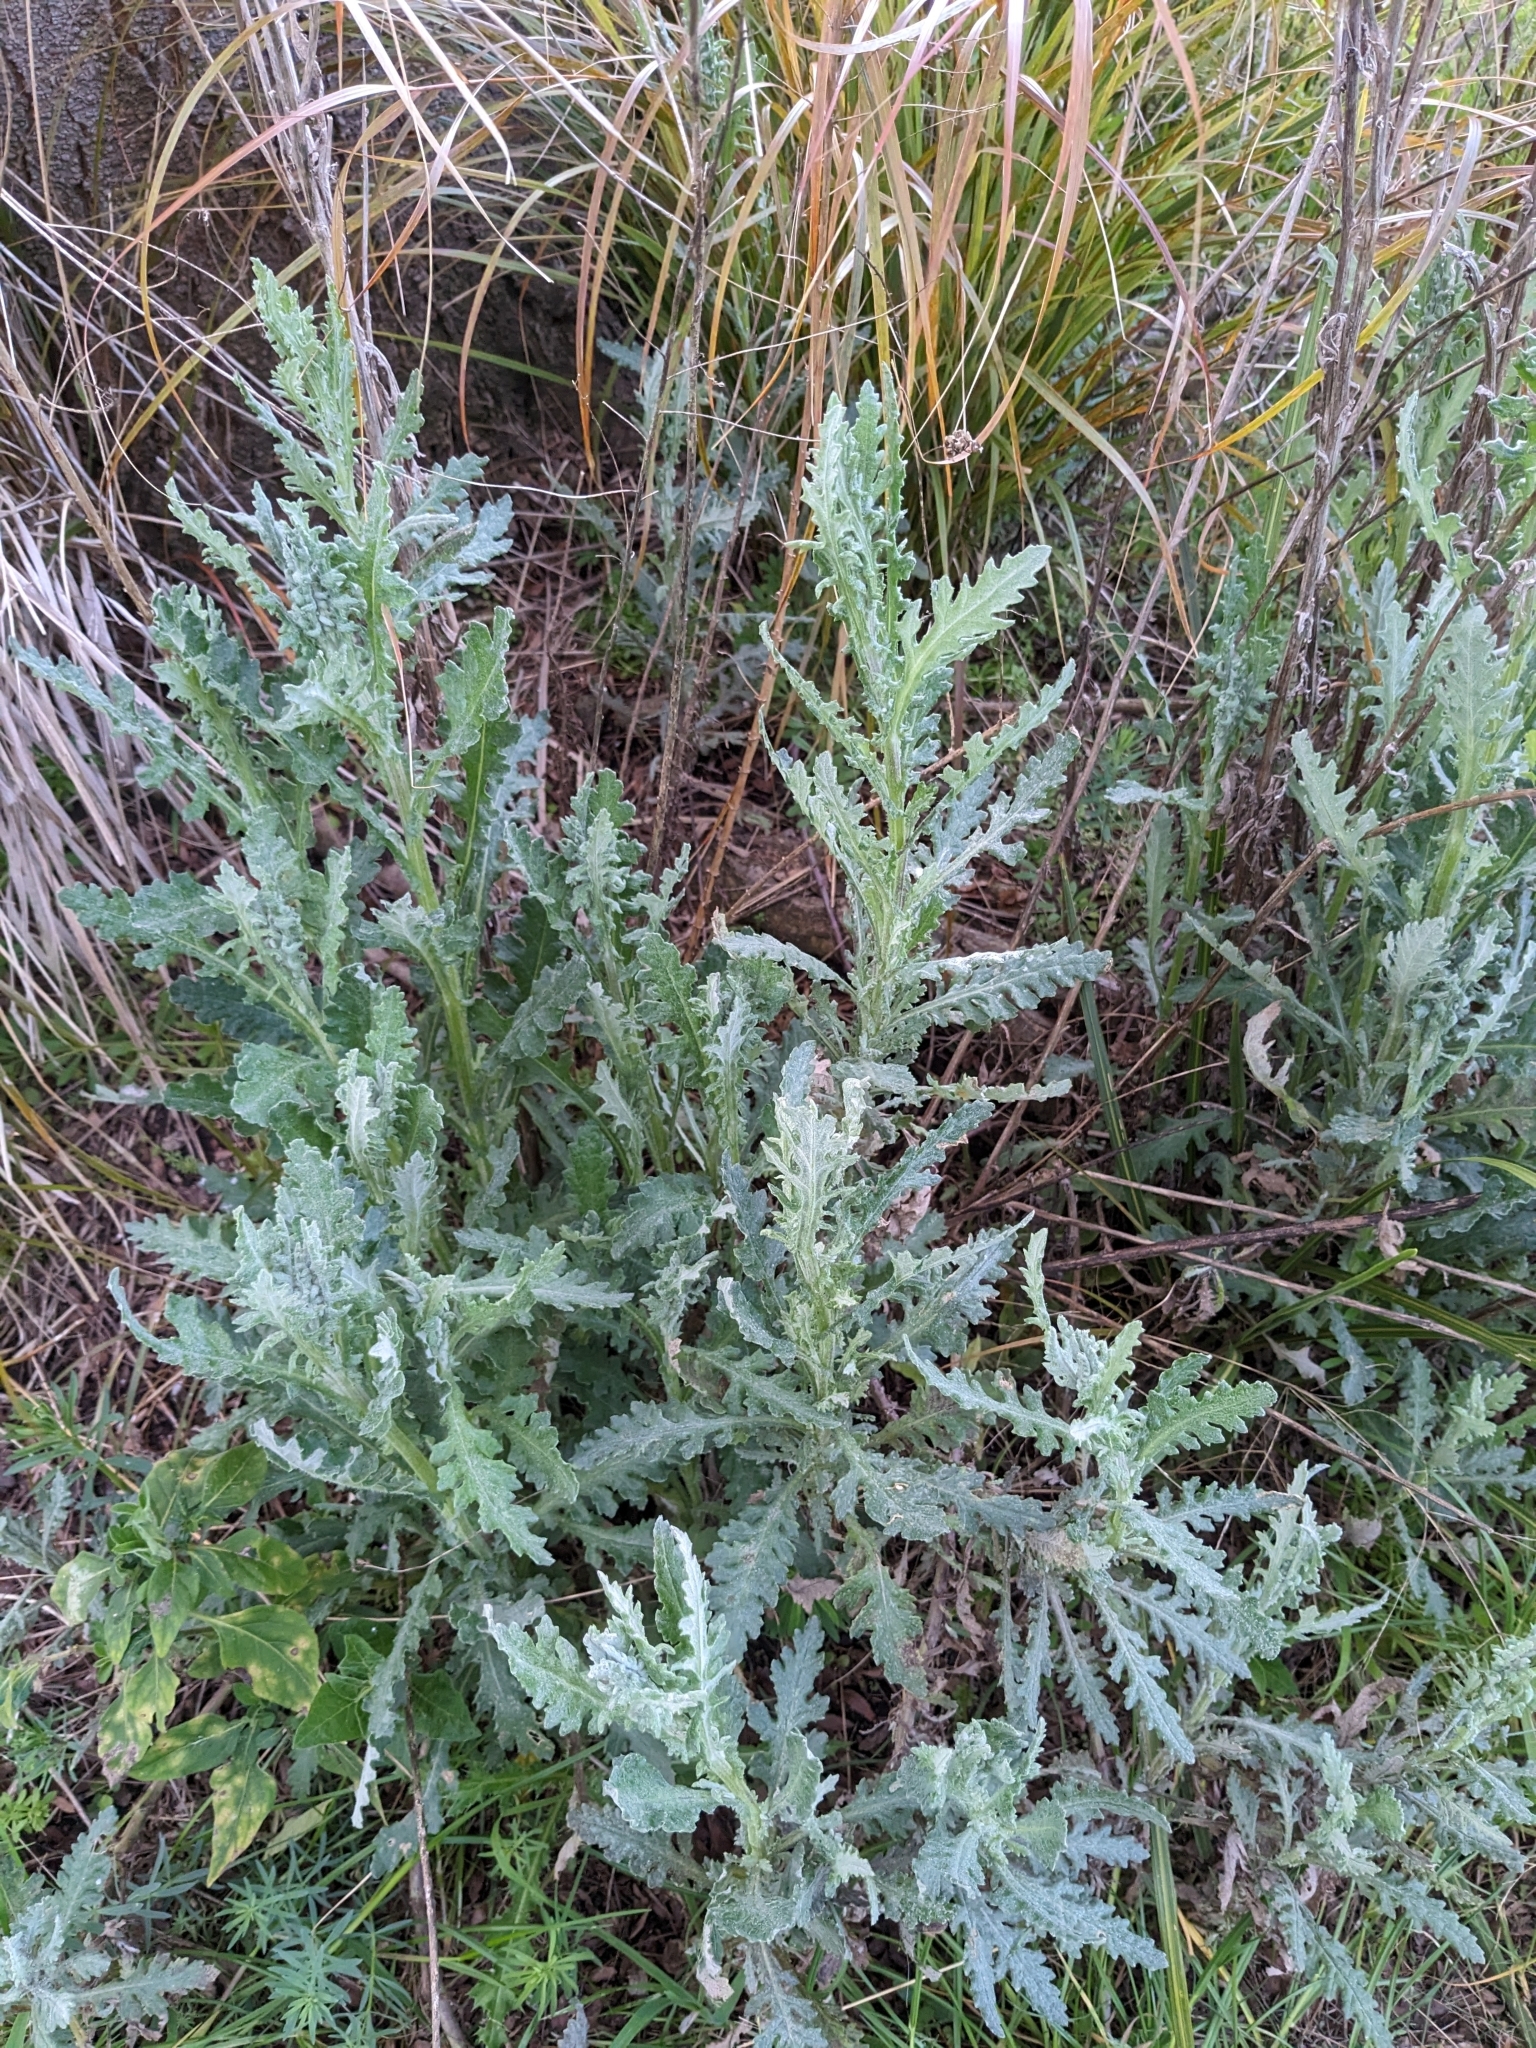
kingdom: Plantae
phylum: Tracheophyta
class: Magnoliopsida
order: Asterales
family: Asteraceae
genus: Senecio
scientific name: Senecio glomeratus
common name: Cutleaf burnweed
